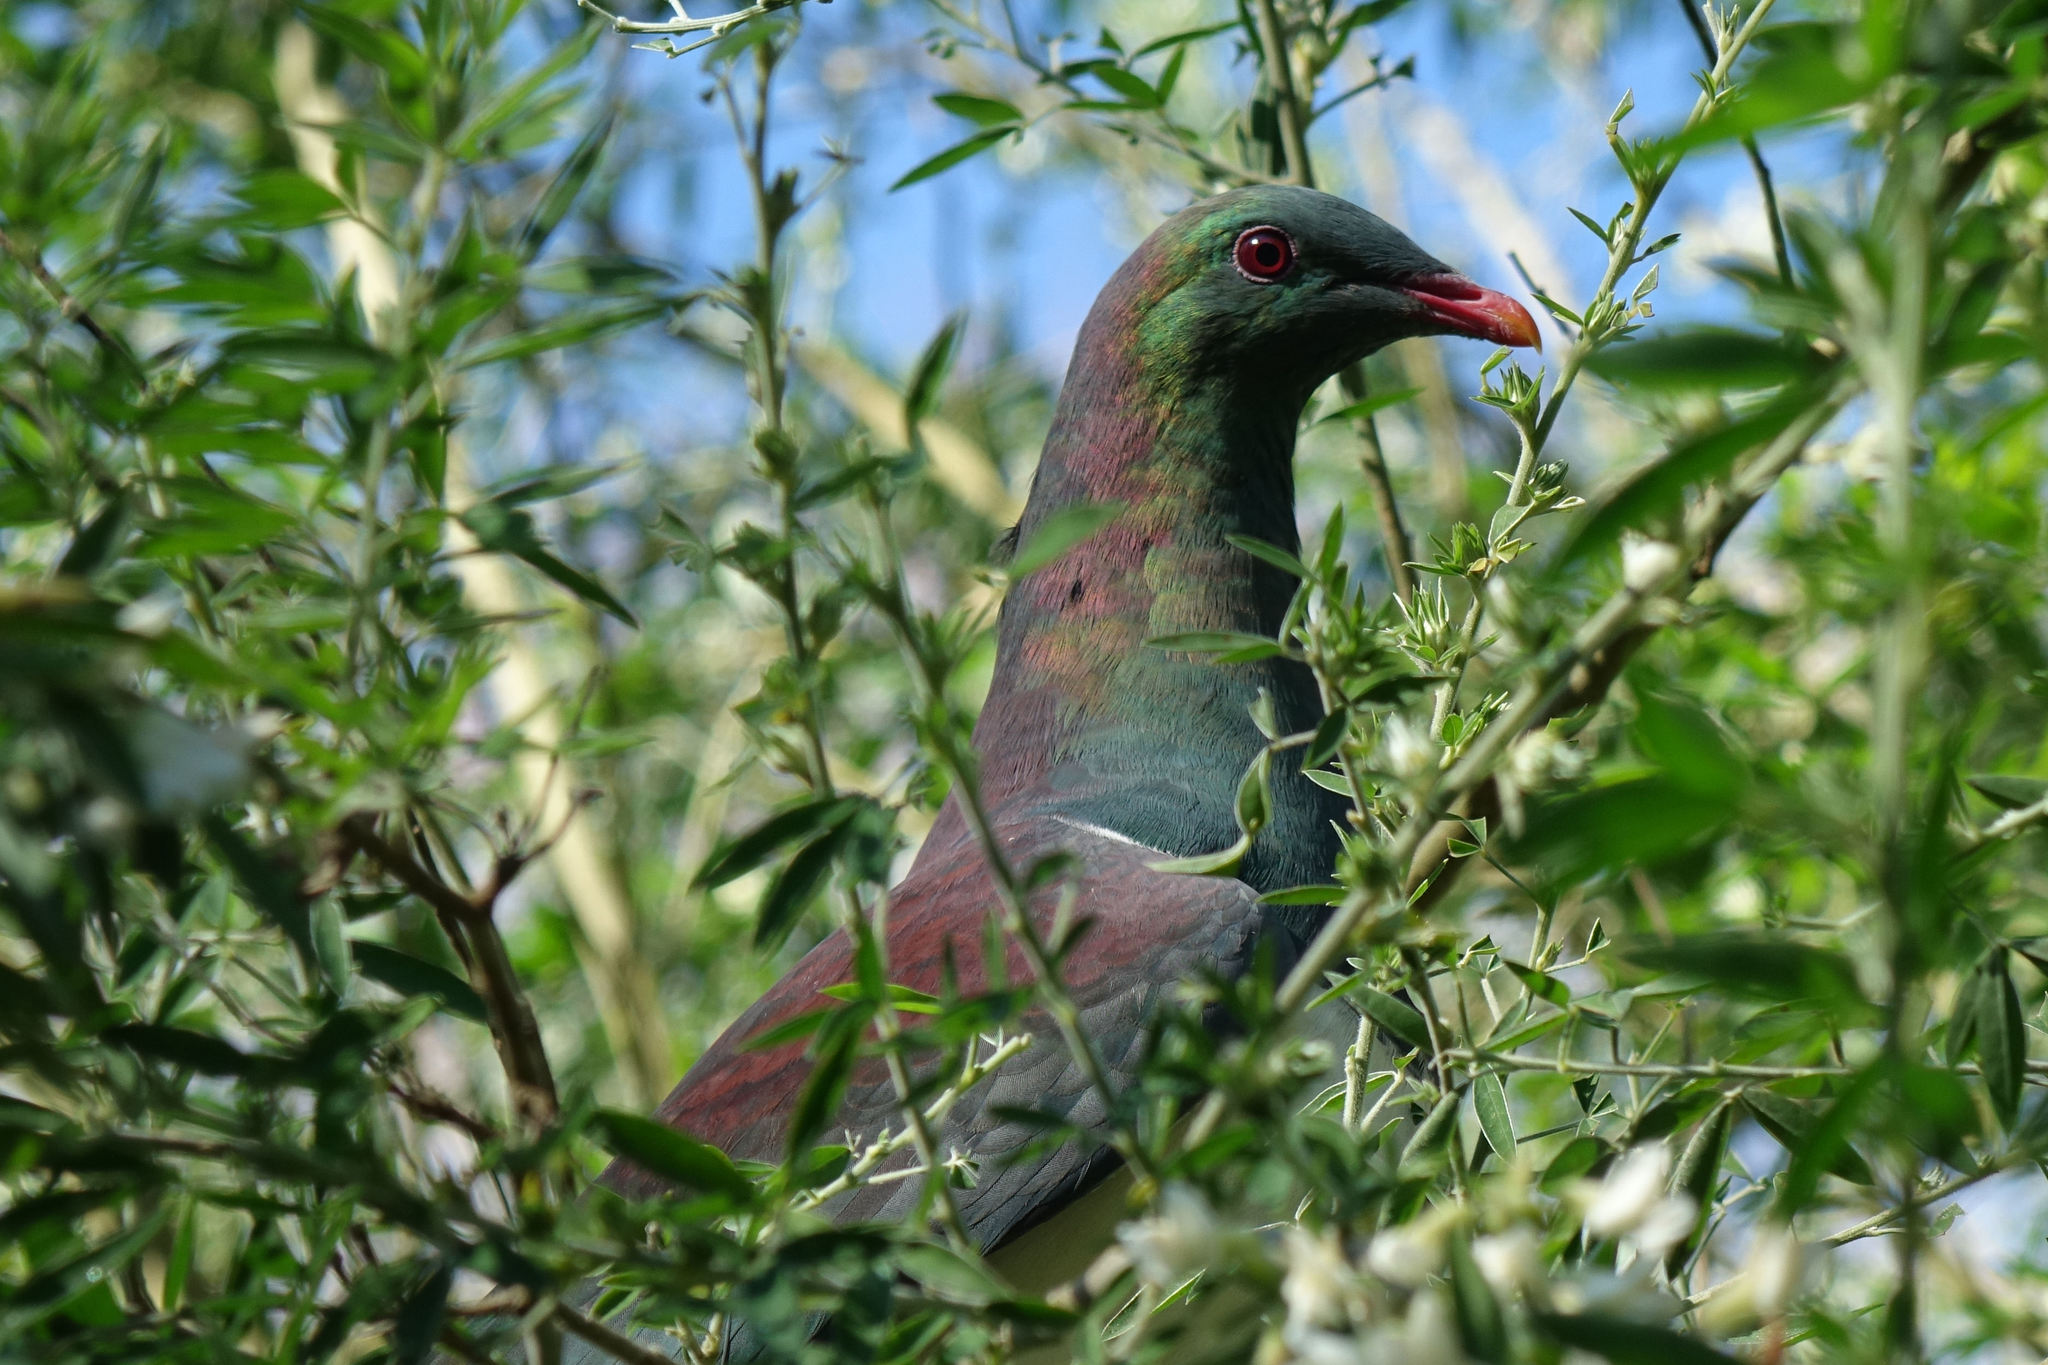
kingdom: Animalia
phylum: Chordata
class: Aves
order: Columbiformes
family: Columbidae
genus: Hemiphaga
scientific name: Hemiphaga novaeseelandiae
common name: New zealand pigeon
